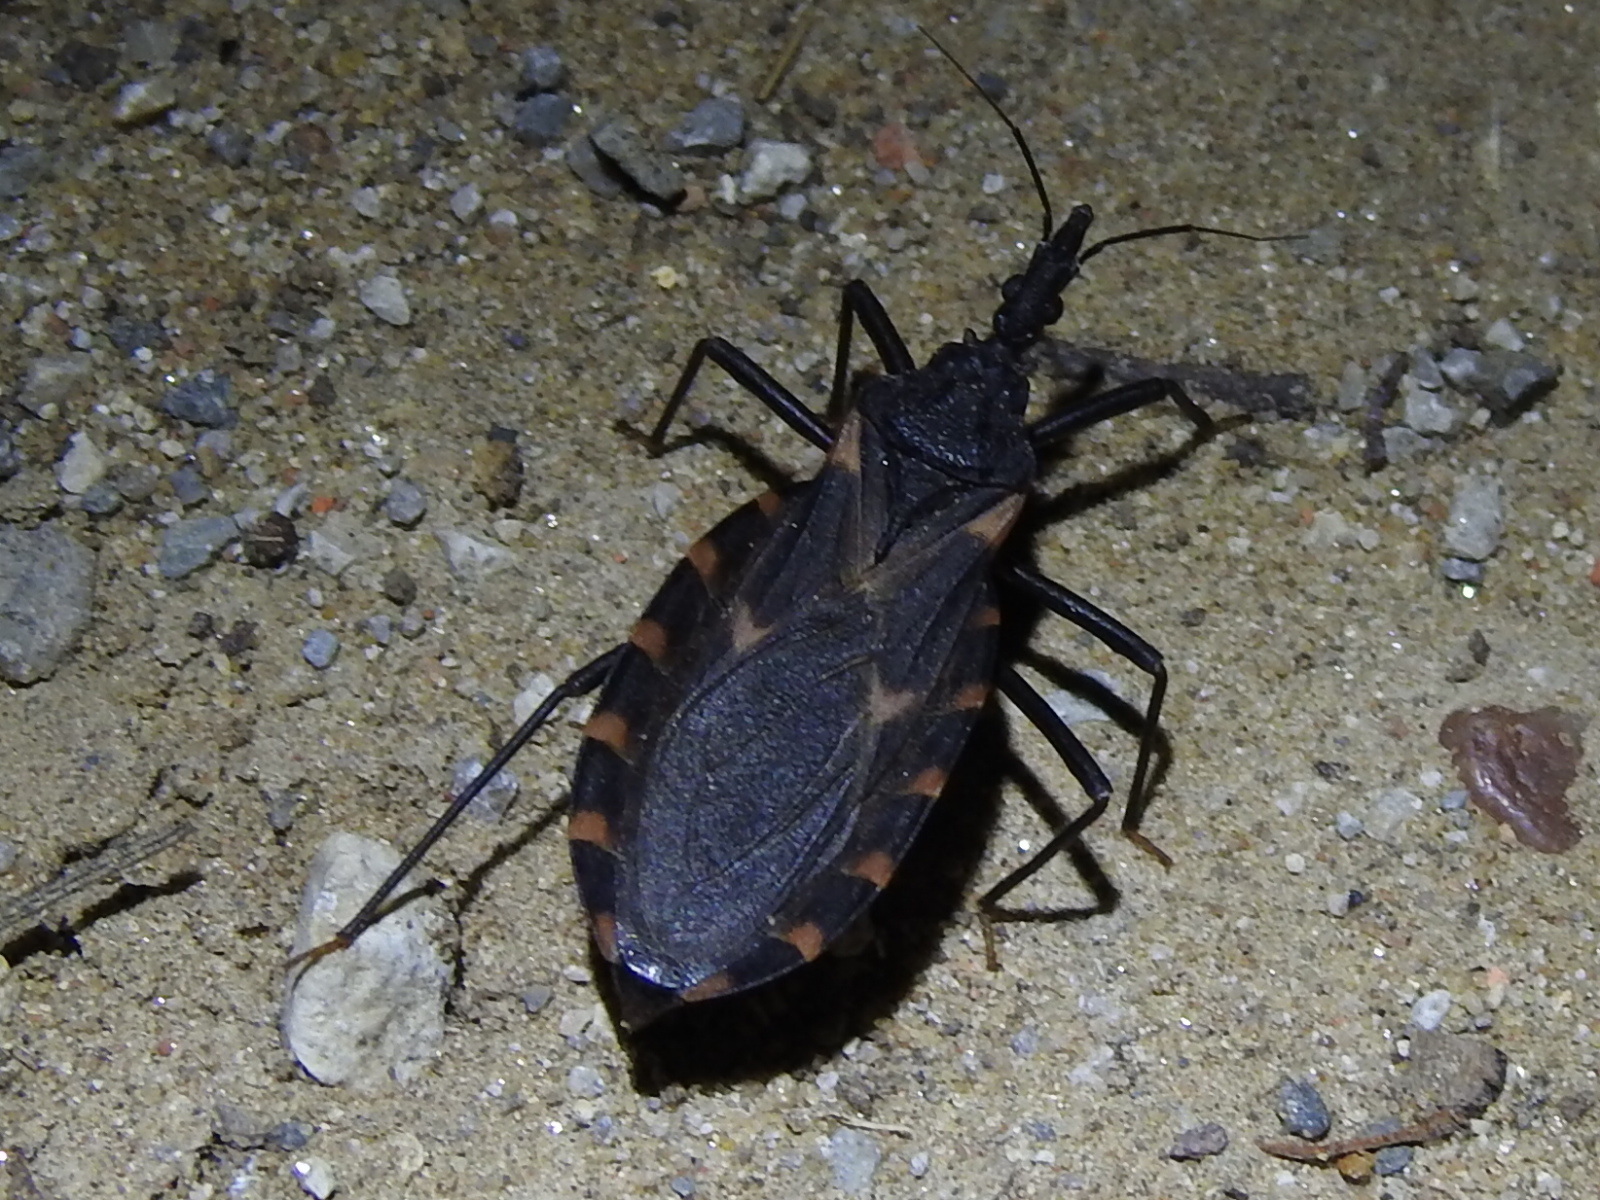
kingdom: Animalia
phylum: Arthropoda
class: Insecta
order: Hemiptera
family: Reduviidae
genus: Triatoma
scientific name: Triatoma sanguisuga
